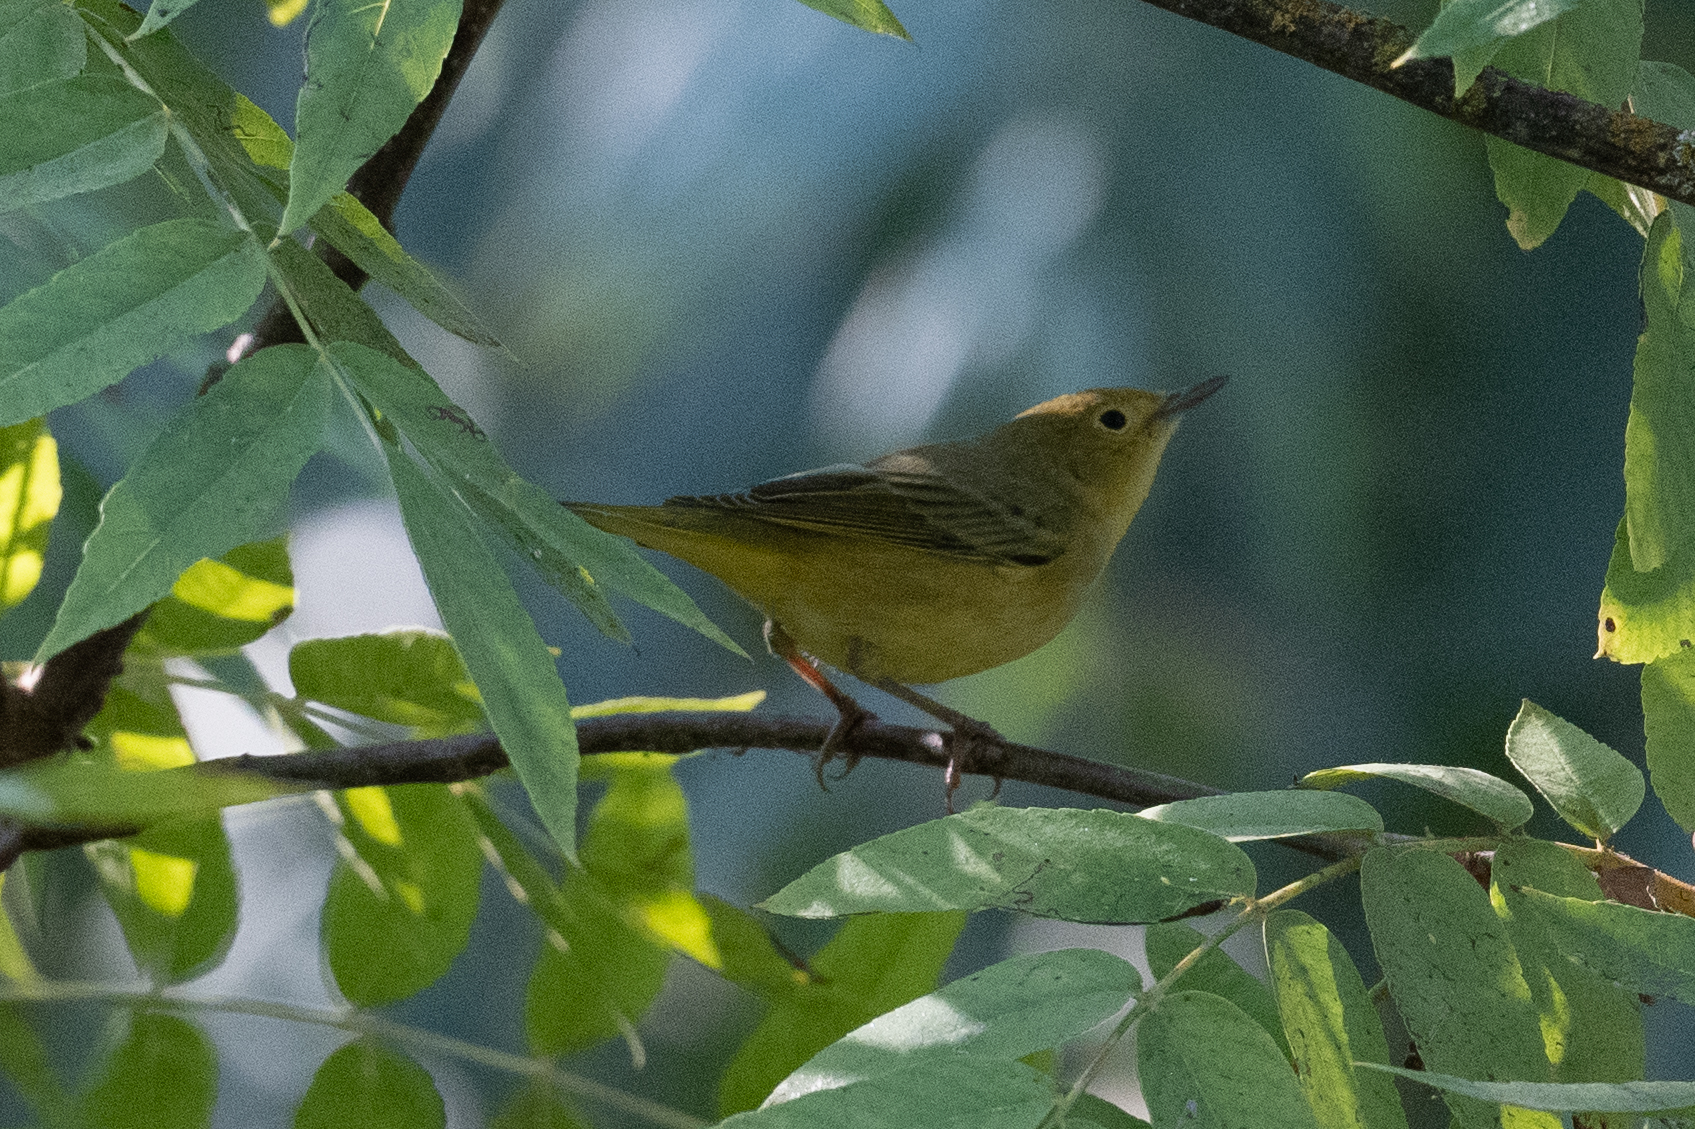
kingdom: Animalia
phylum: Chordata
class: Aves
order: Passeriformes
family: Parulidae
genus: Setophaga
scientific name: Setophaga petechia
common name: Yellow warbler
